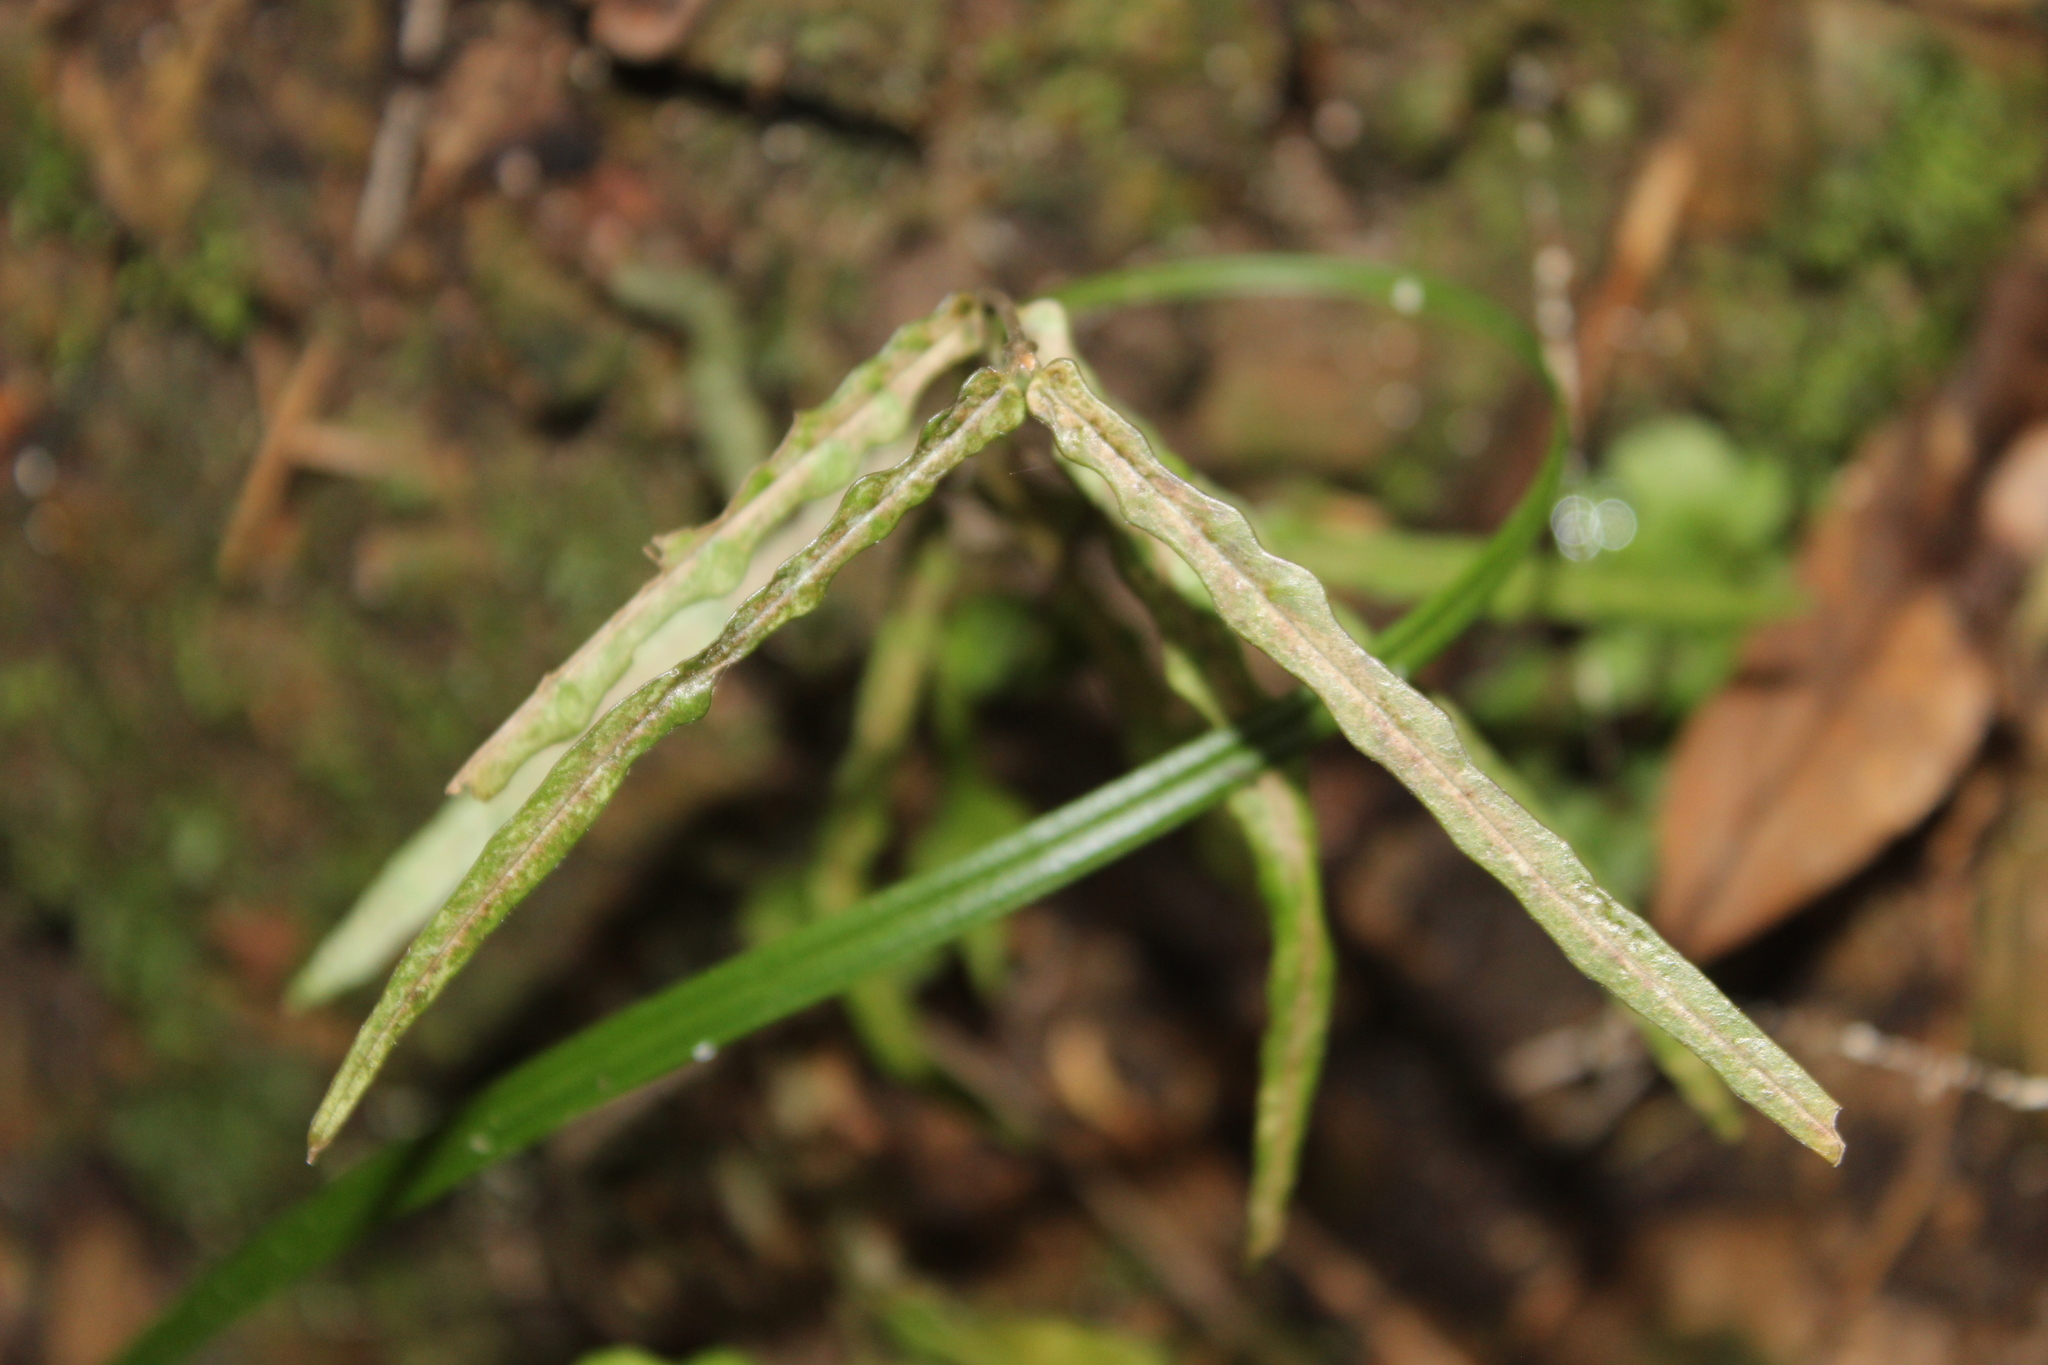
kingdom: Plantae
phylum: Tracheophyta
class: Magnoliopsida
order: Gentianales
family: Apocynaceae
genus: Parsonsia
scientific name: Parsonsia heterophylla
